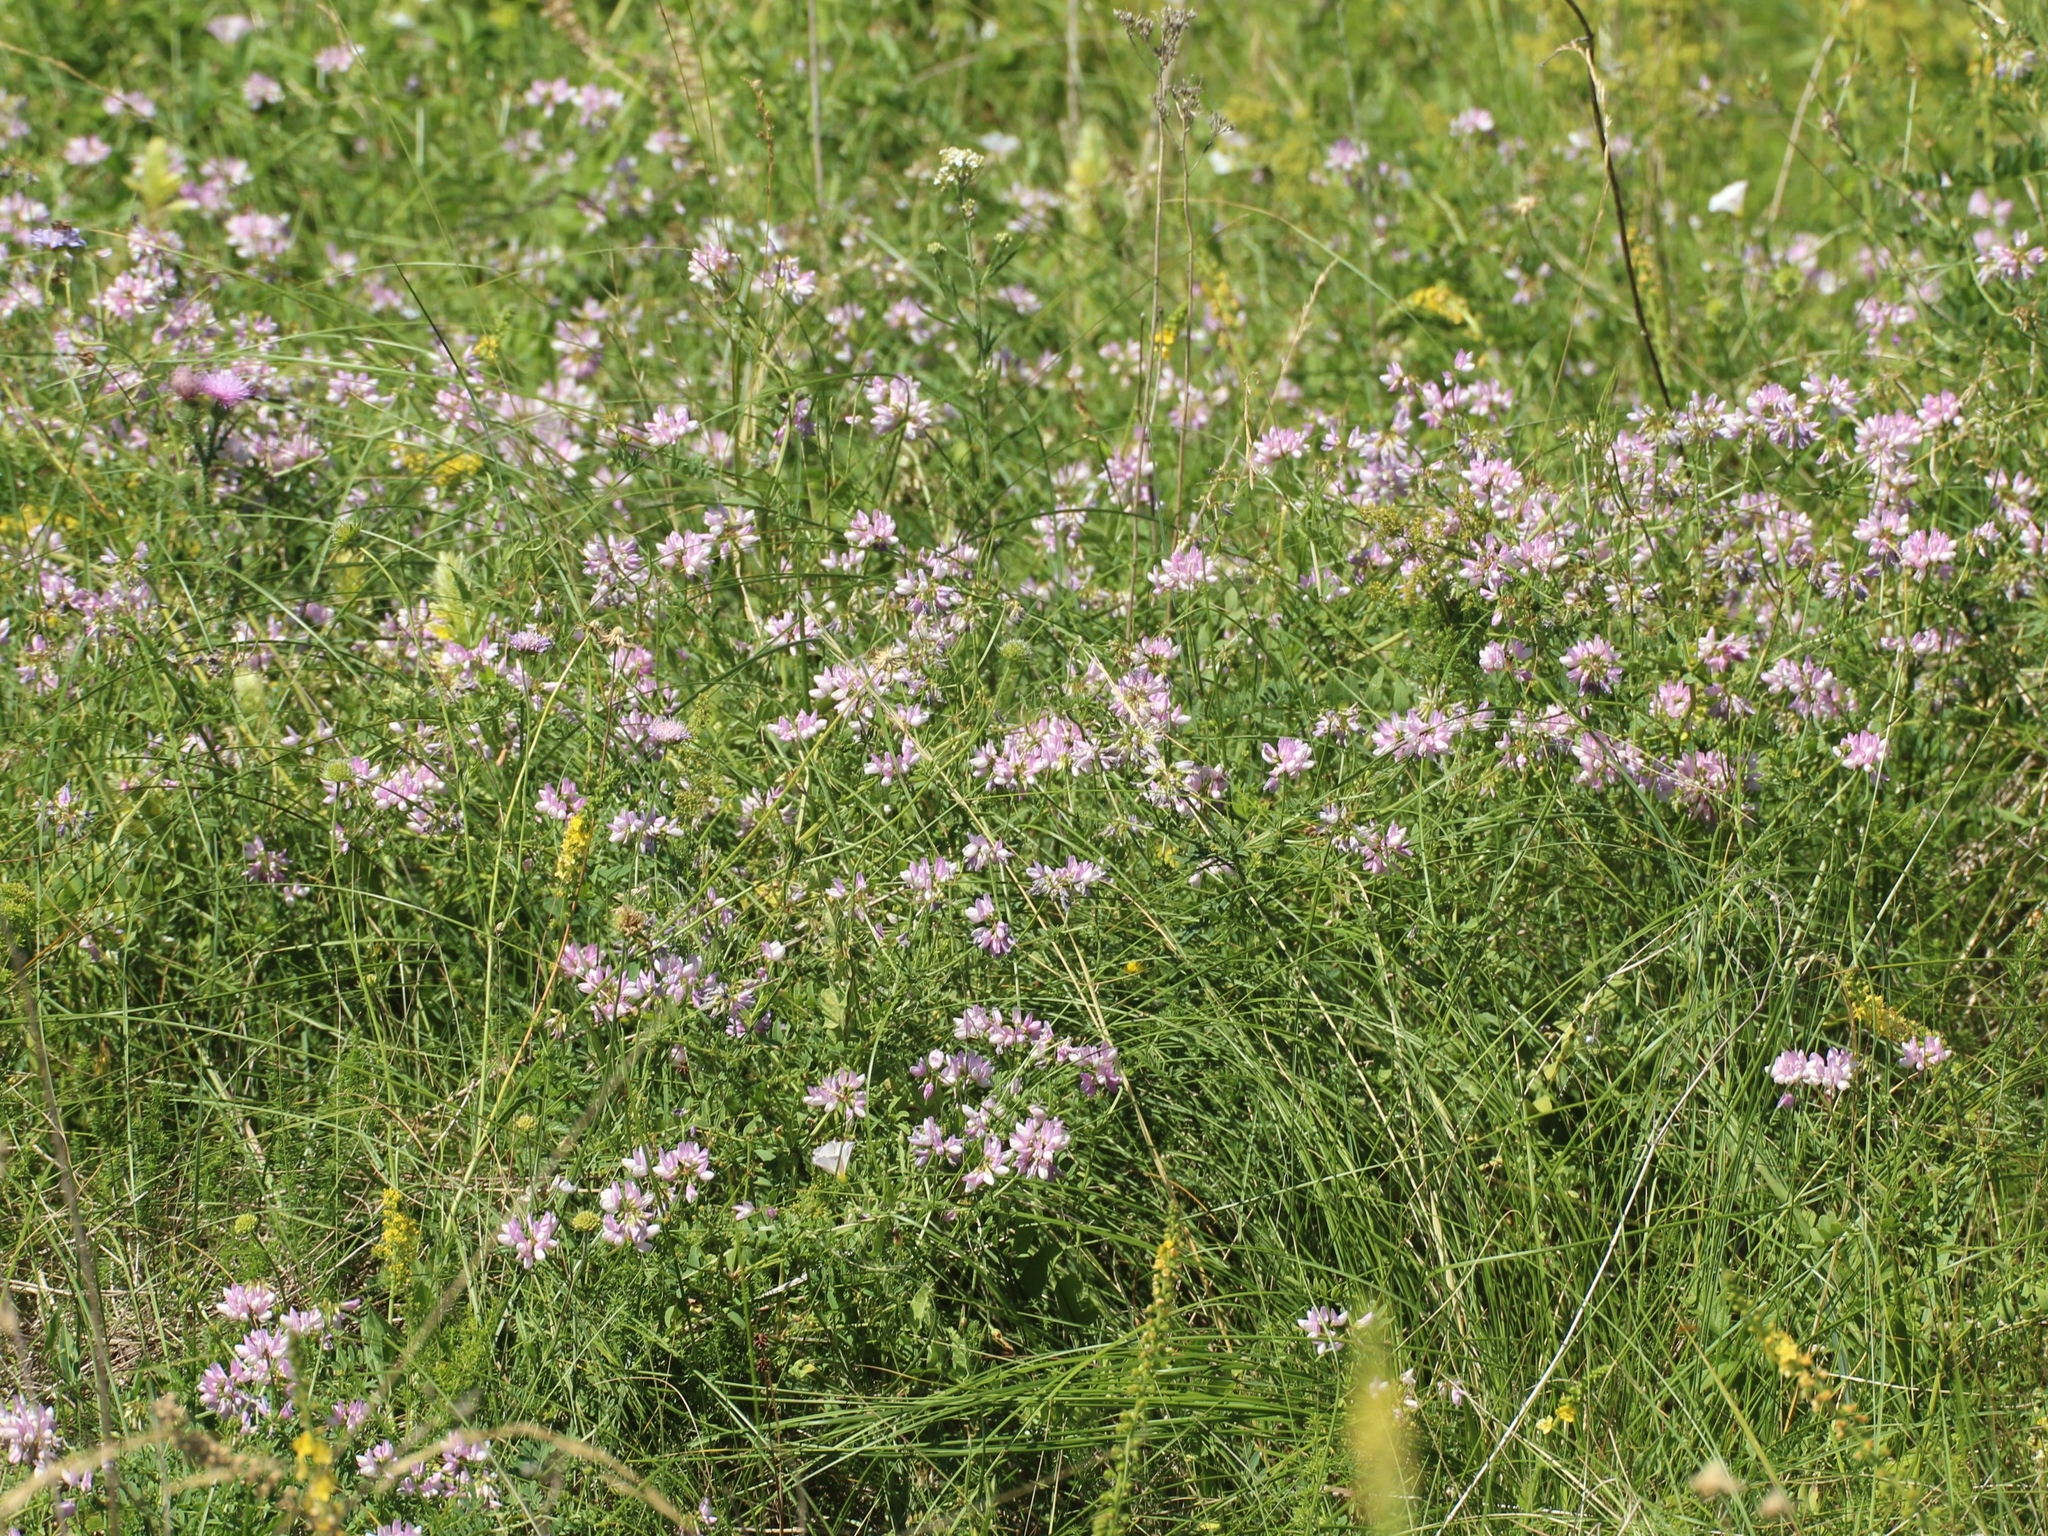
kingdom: Plantae
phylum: Tracheophyta
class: Magnoliopsida
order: Fabales
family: Fabaceae
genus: Coronilla
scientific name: Coronilla varia
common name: Crownvetch
